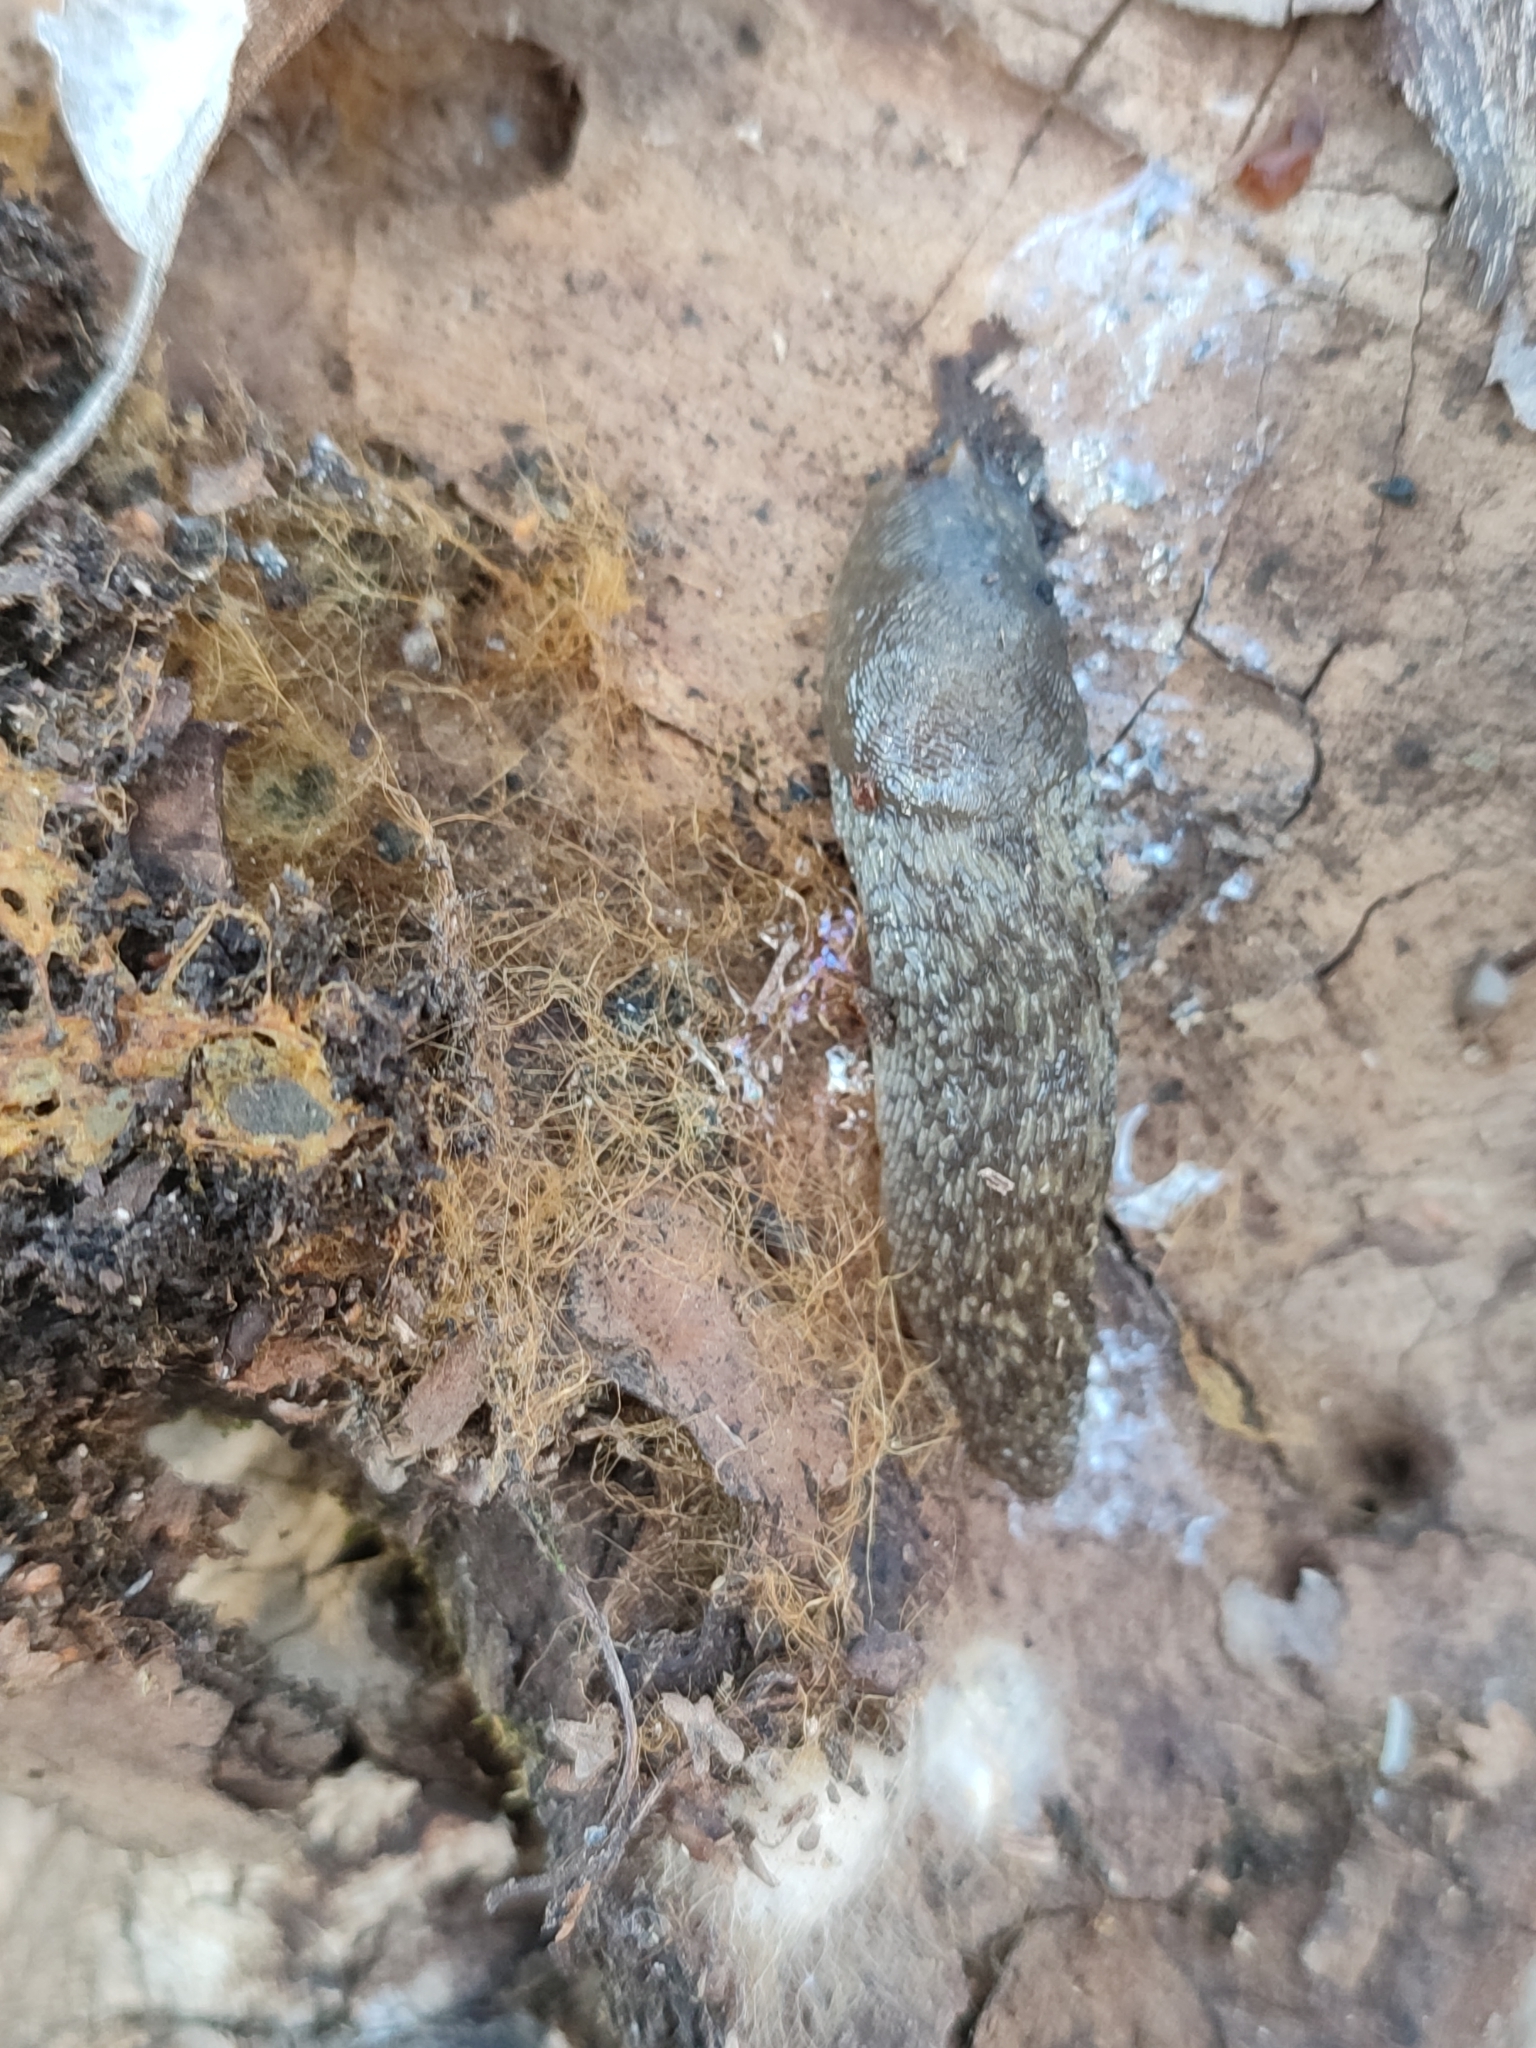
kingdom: Animalia
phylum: Mollusca
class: Gastropoda
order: Stylommatophora
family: Limacidae
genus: Limacus
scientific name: Limacus
